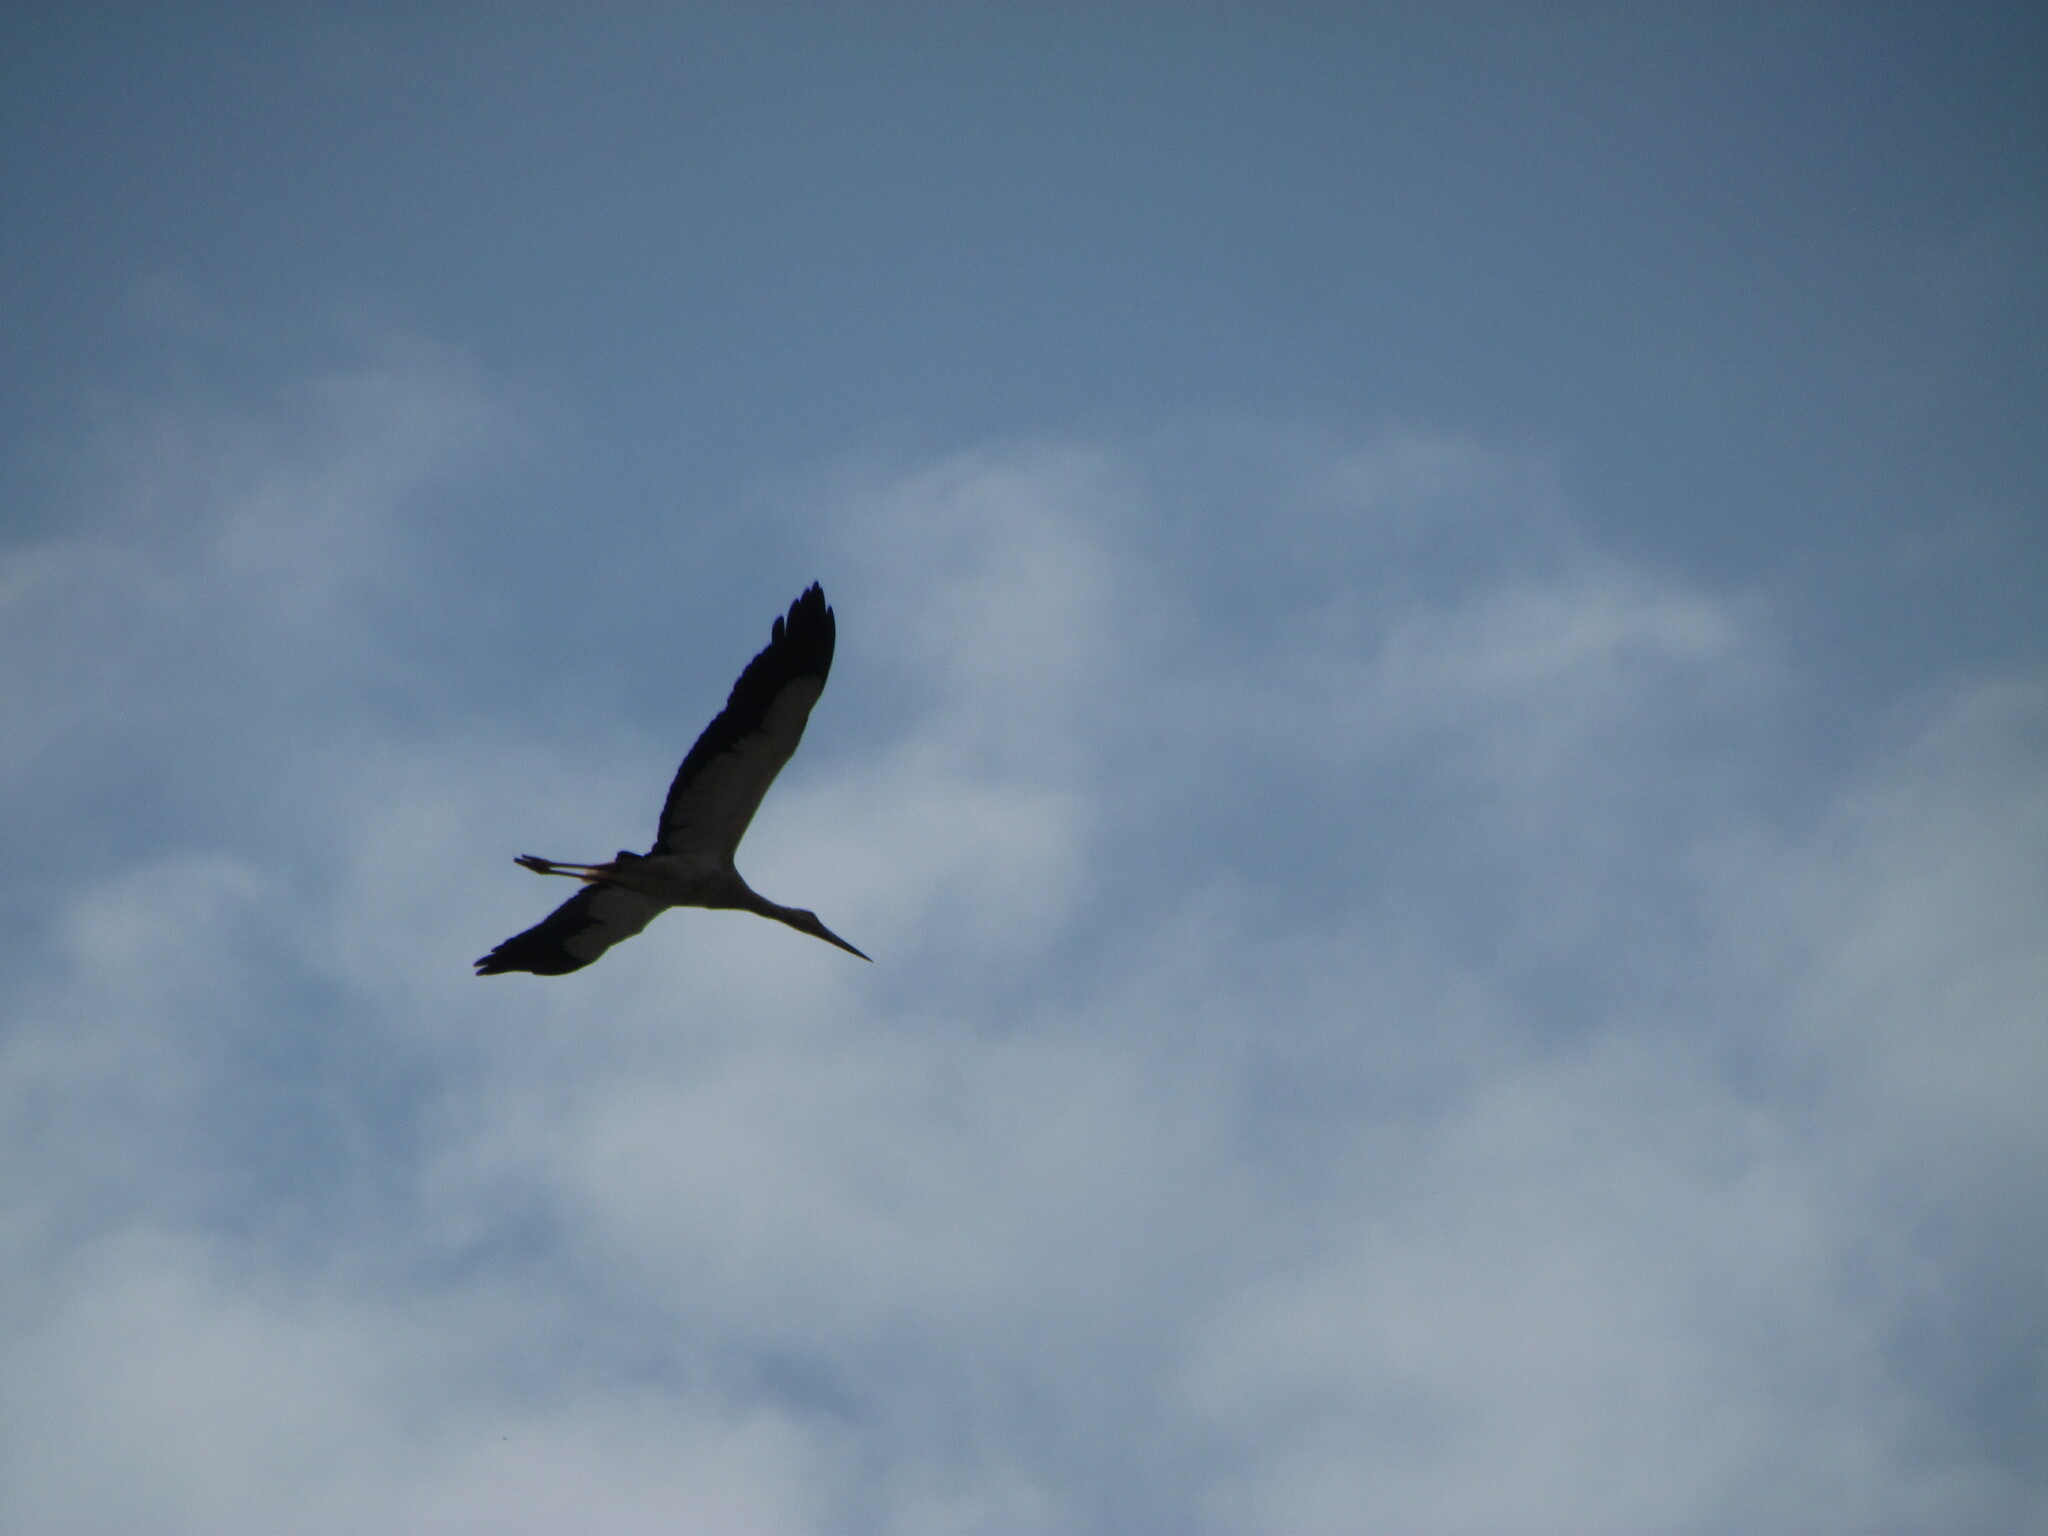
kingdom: Animalia
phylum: Chordata
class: Aves
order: Ciconiiformes
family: Ciconiidae
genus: Ciconia
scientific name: Ciconia maguari
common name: Maguari stork
